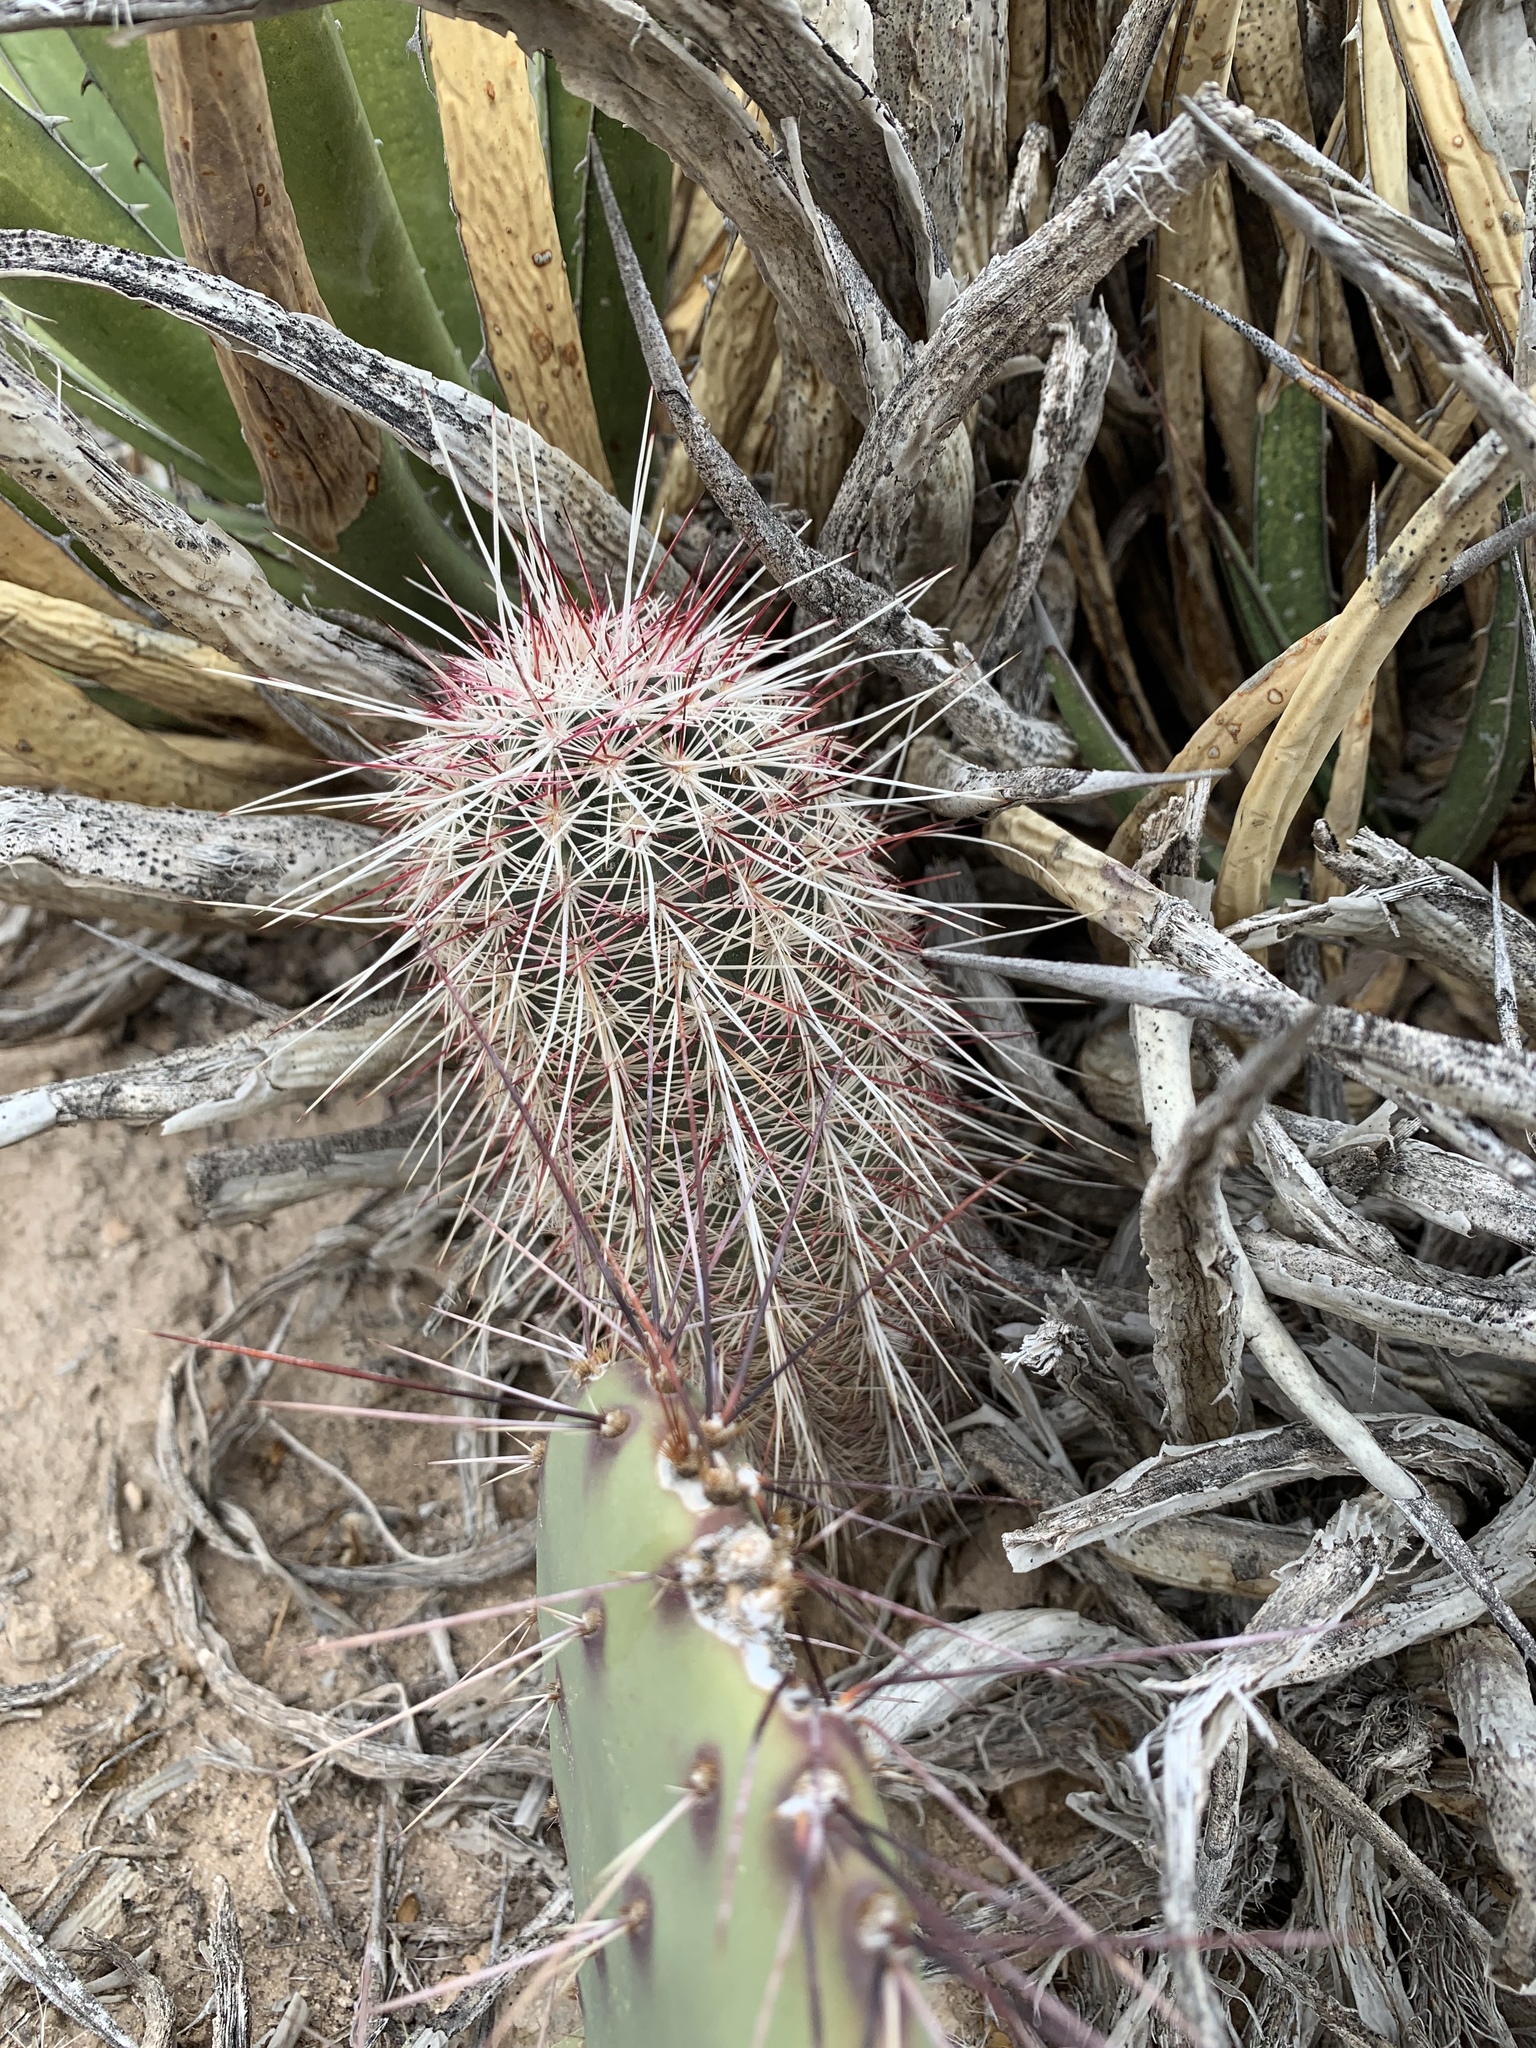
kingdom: Plantae
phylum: Tracheophyta
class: Magnoliopsida
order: Caryophyllales
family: Cactaceae
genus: Echinocereus
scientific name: Echinocereus viridiflorus
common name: Nylon hedgehog cactus
